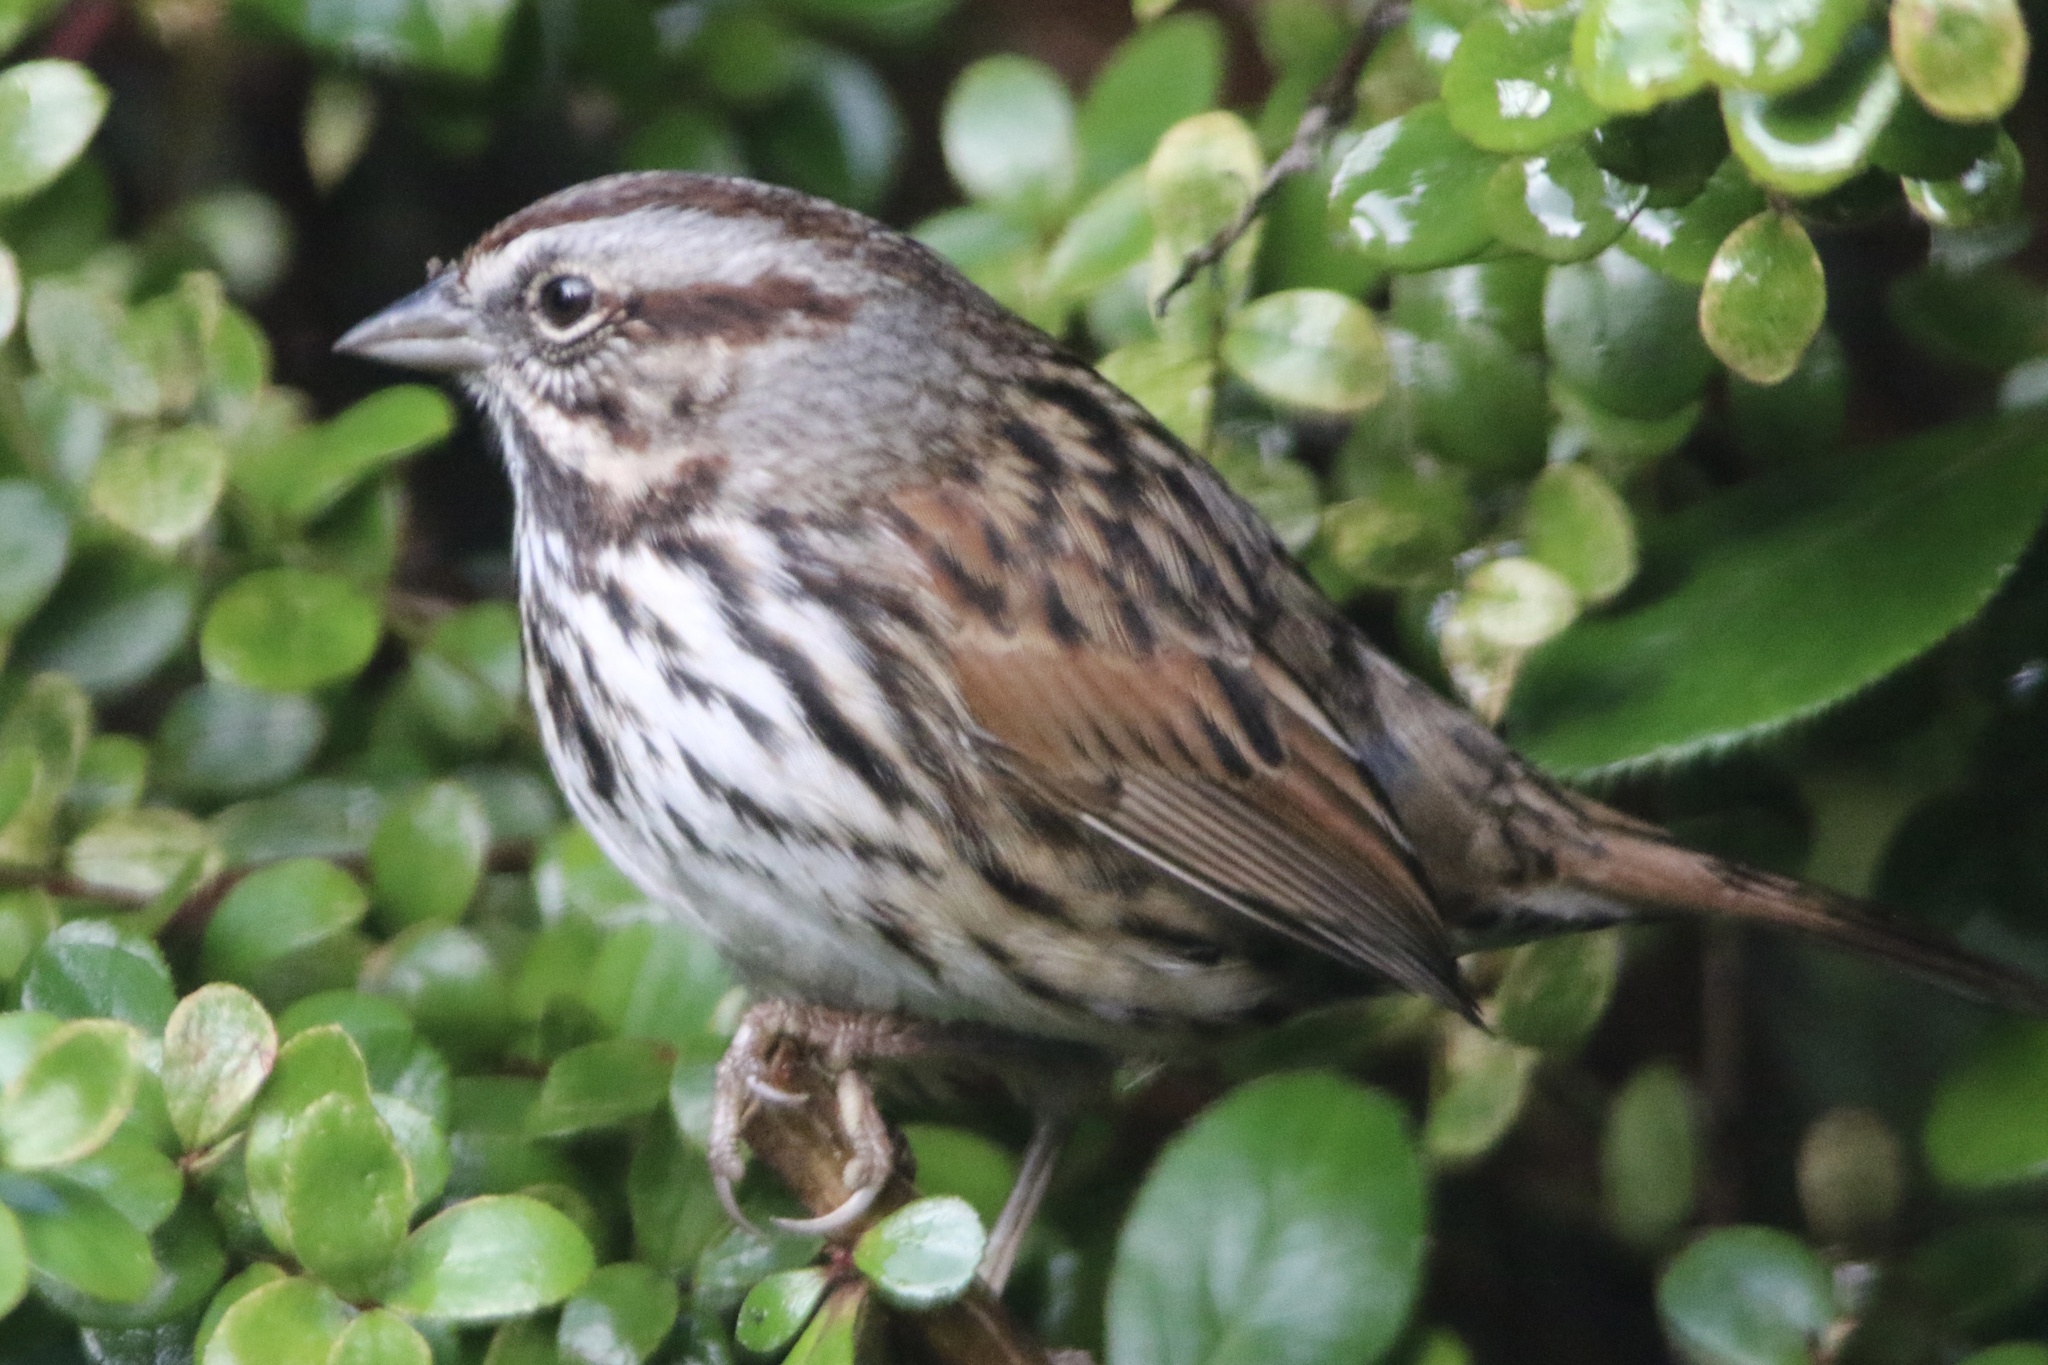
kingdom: Animalia
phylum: Chordata
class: Aves
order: Passeriformes
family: Passerellidae
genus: Melospiza
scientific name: Melospiza melodia
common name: Song sparrow
